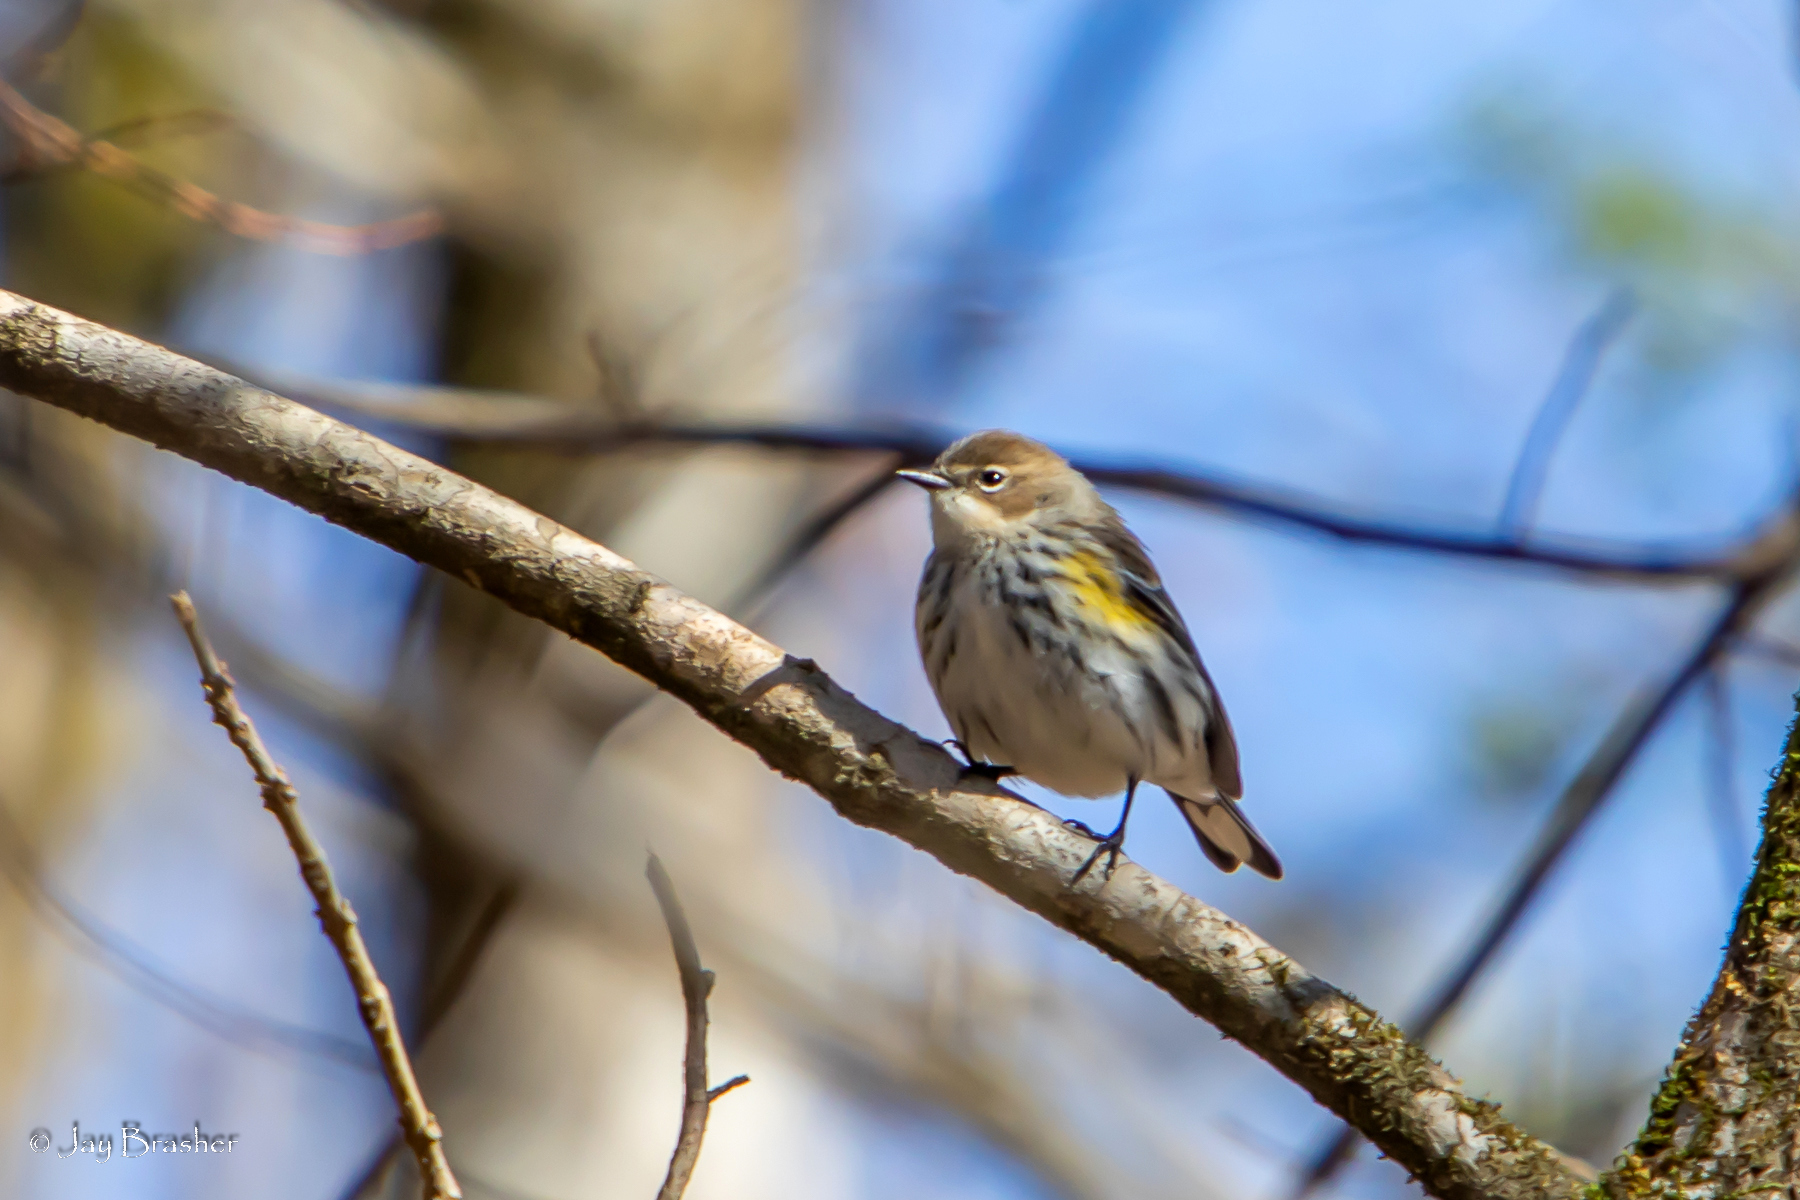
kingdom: Animalia
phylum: Chordata
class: Aves
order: Passeriformes
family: Parulidae
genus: Setophaga
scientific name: Setophaga coronata
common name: Myrtle warbler
